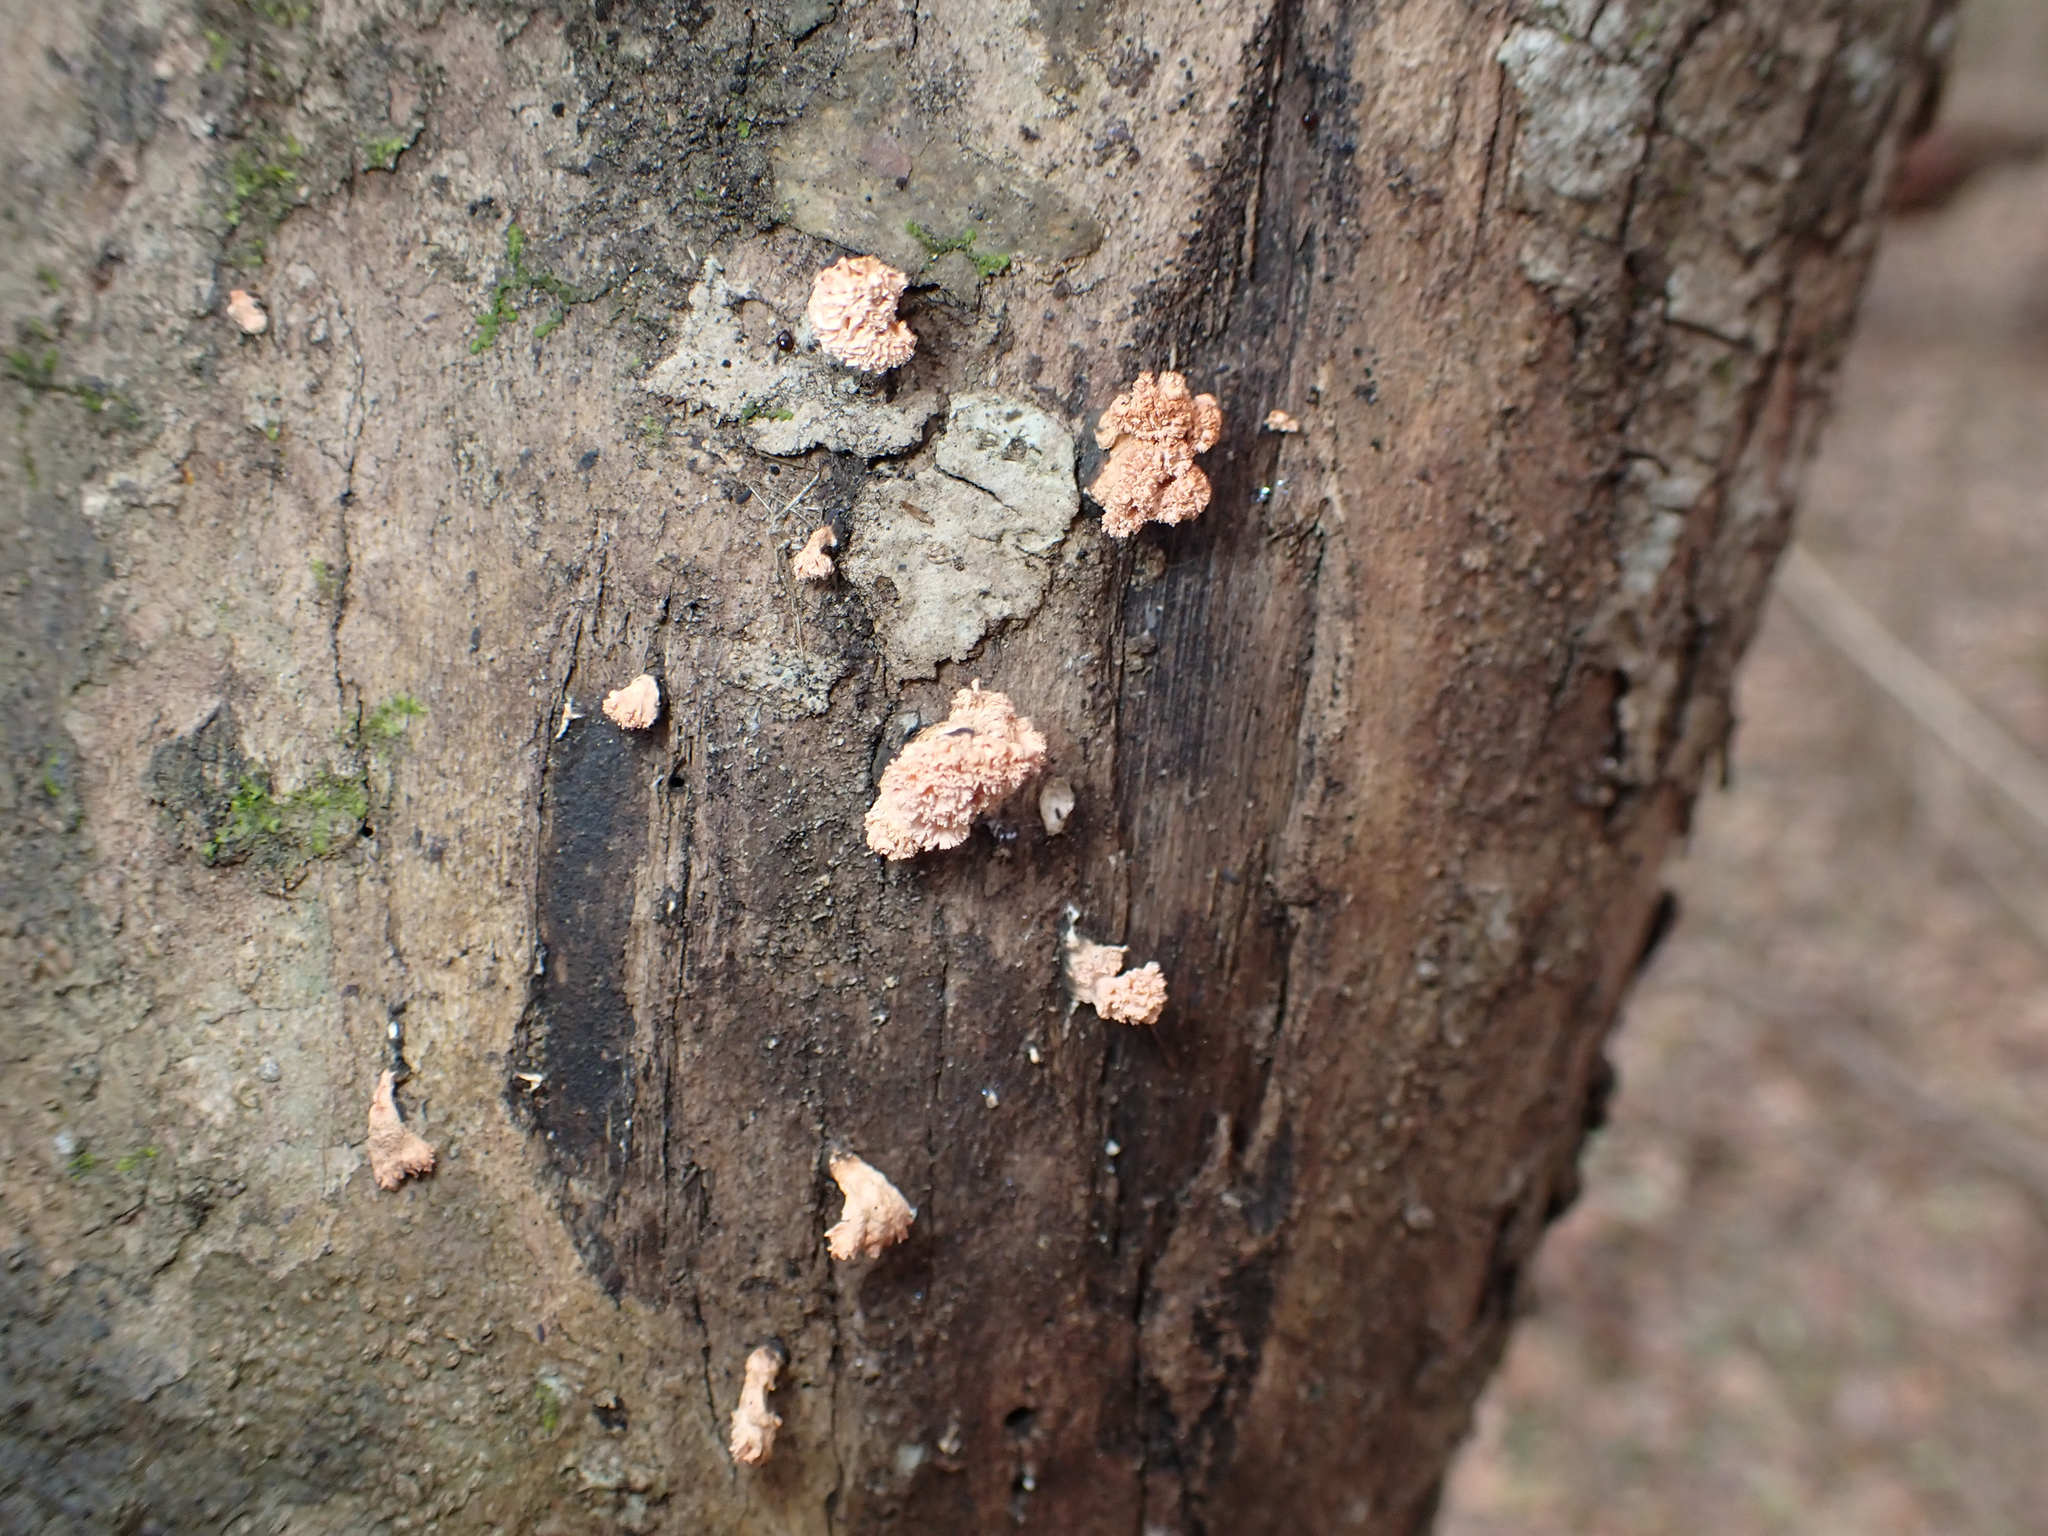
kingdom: Fungi
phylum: Ascomycota
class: Sordariomycetes
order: Xylariales
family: Xylariaceae
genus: Xylaria
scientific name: Xylaria cubensis
